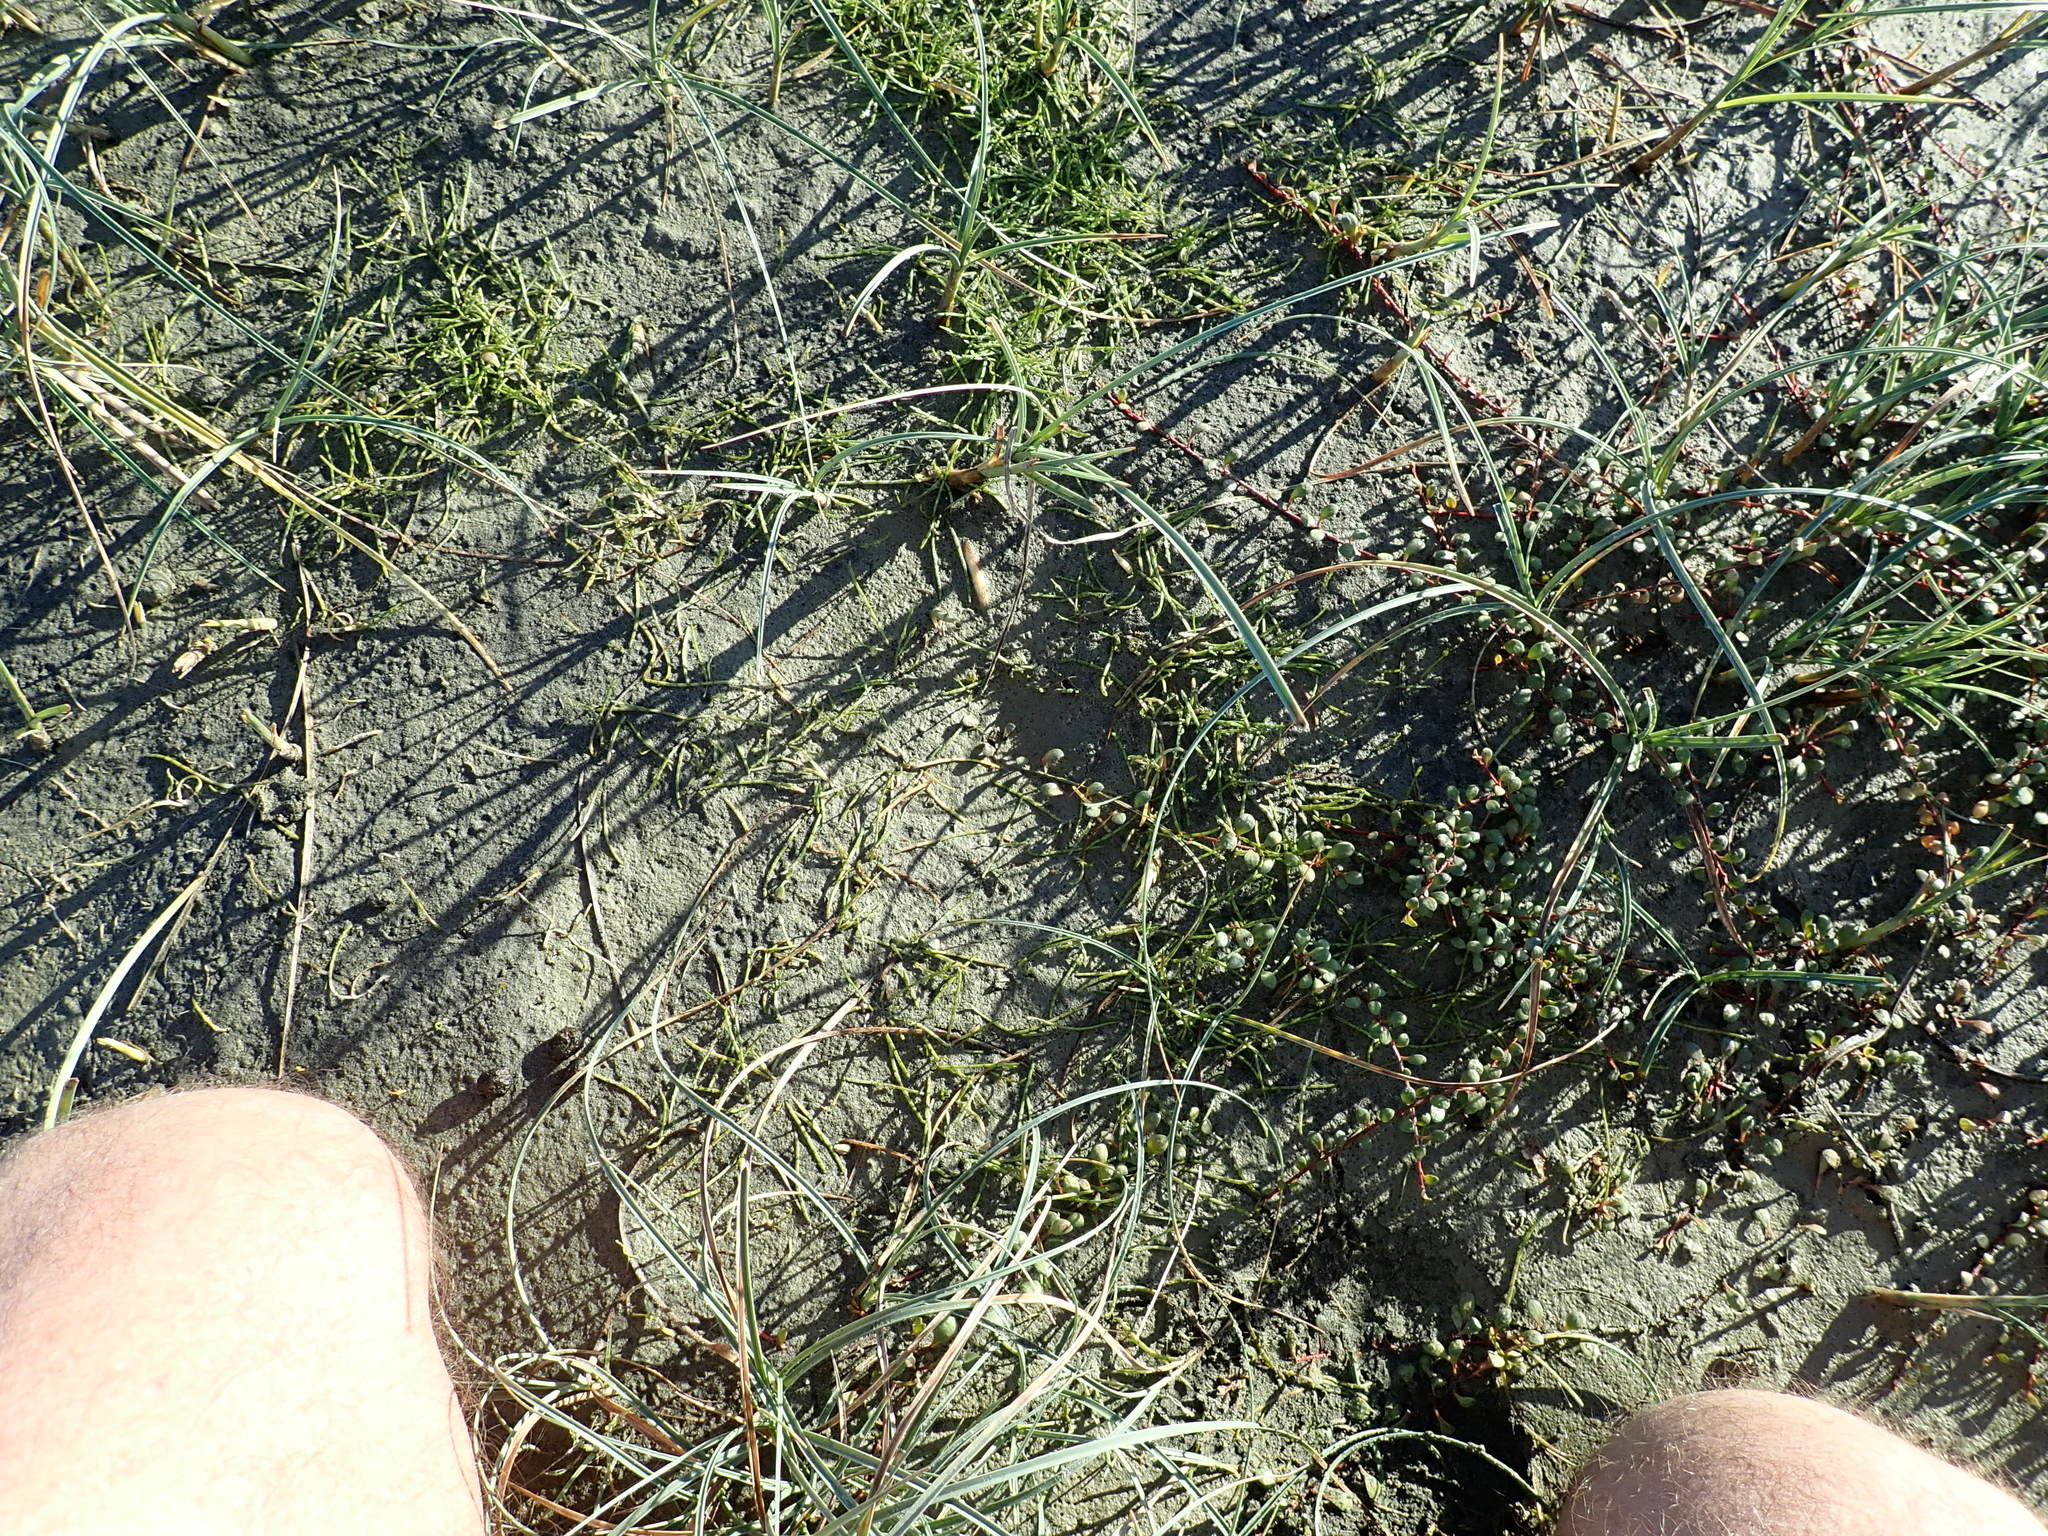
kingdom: Plantae
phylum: Tracheophyta
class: Magnoliopsida
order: Apiales
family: Apiaceae
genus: Lilaeopsis
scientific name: Lilaeopsis novae-zelandiae
